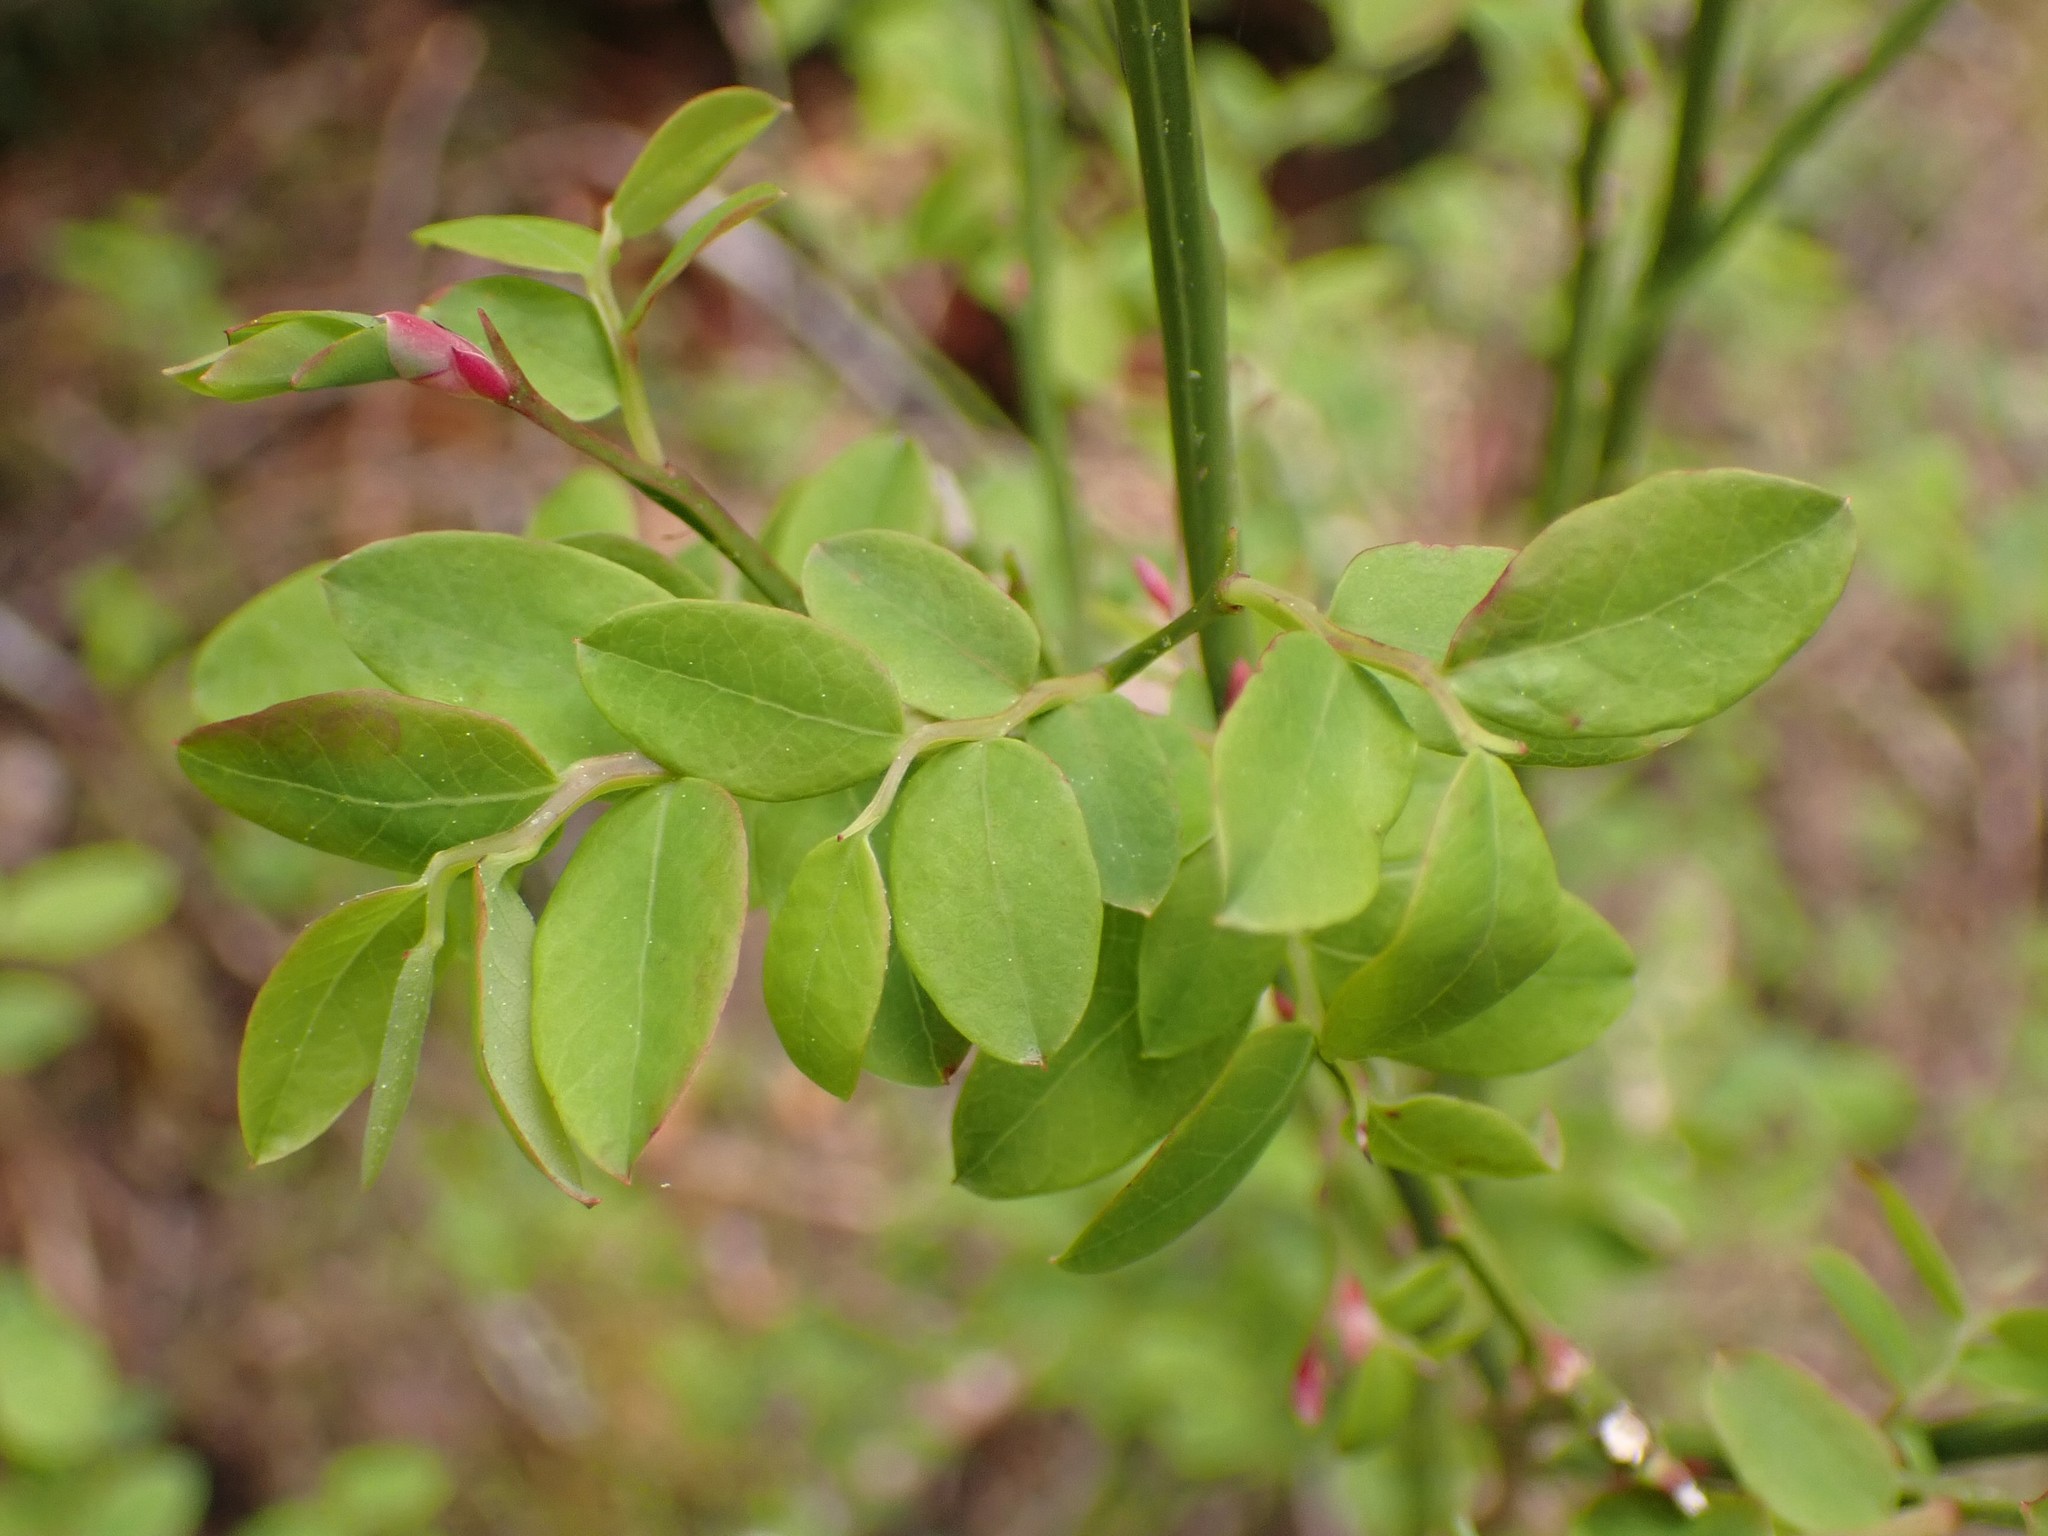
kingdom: Plantae
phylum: Tracheophyta
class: Magnoliopsida
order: Ericales
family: Ericaceae
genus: Vaccinium
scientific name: Vaccinium parvifolium
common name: Red-huckleberry
